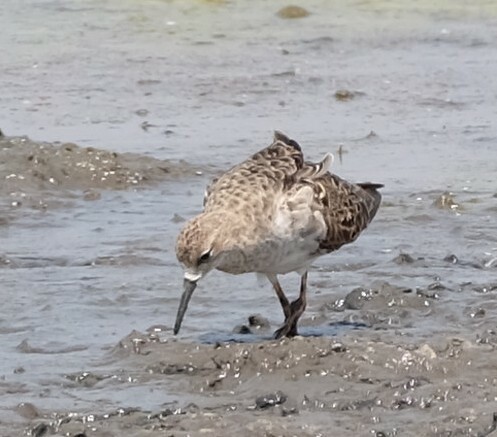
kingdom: Animalia
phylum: Chordata
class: Aves
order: Charadriiformes
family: Scolopacidae
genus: Calidris
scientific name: Calidris pugnax
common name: Ruff
